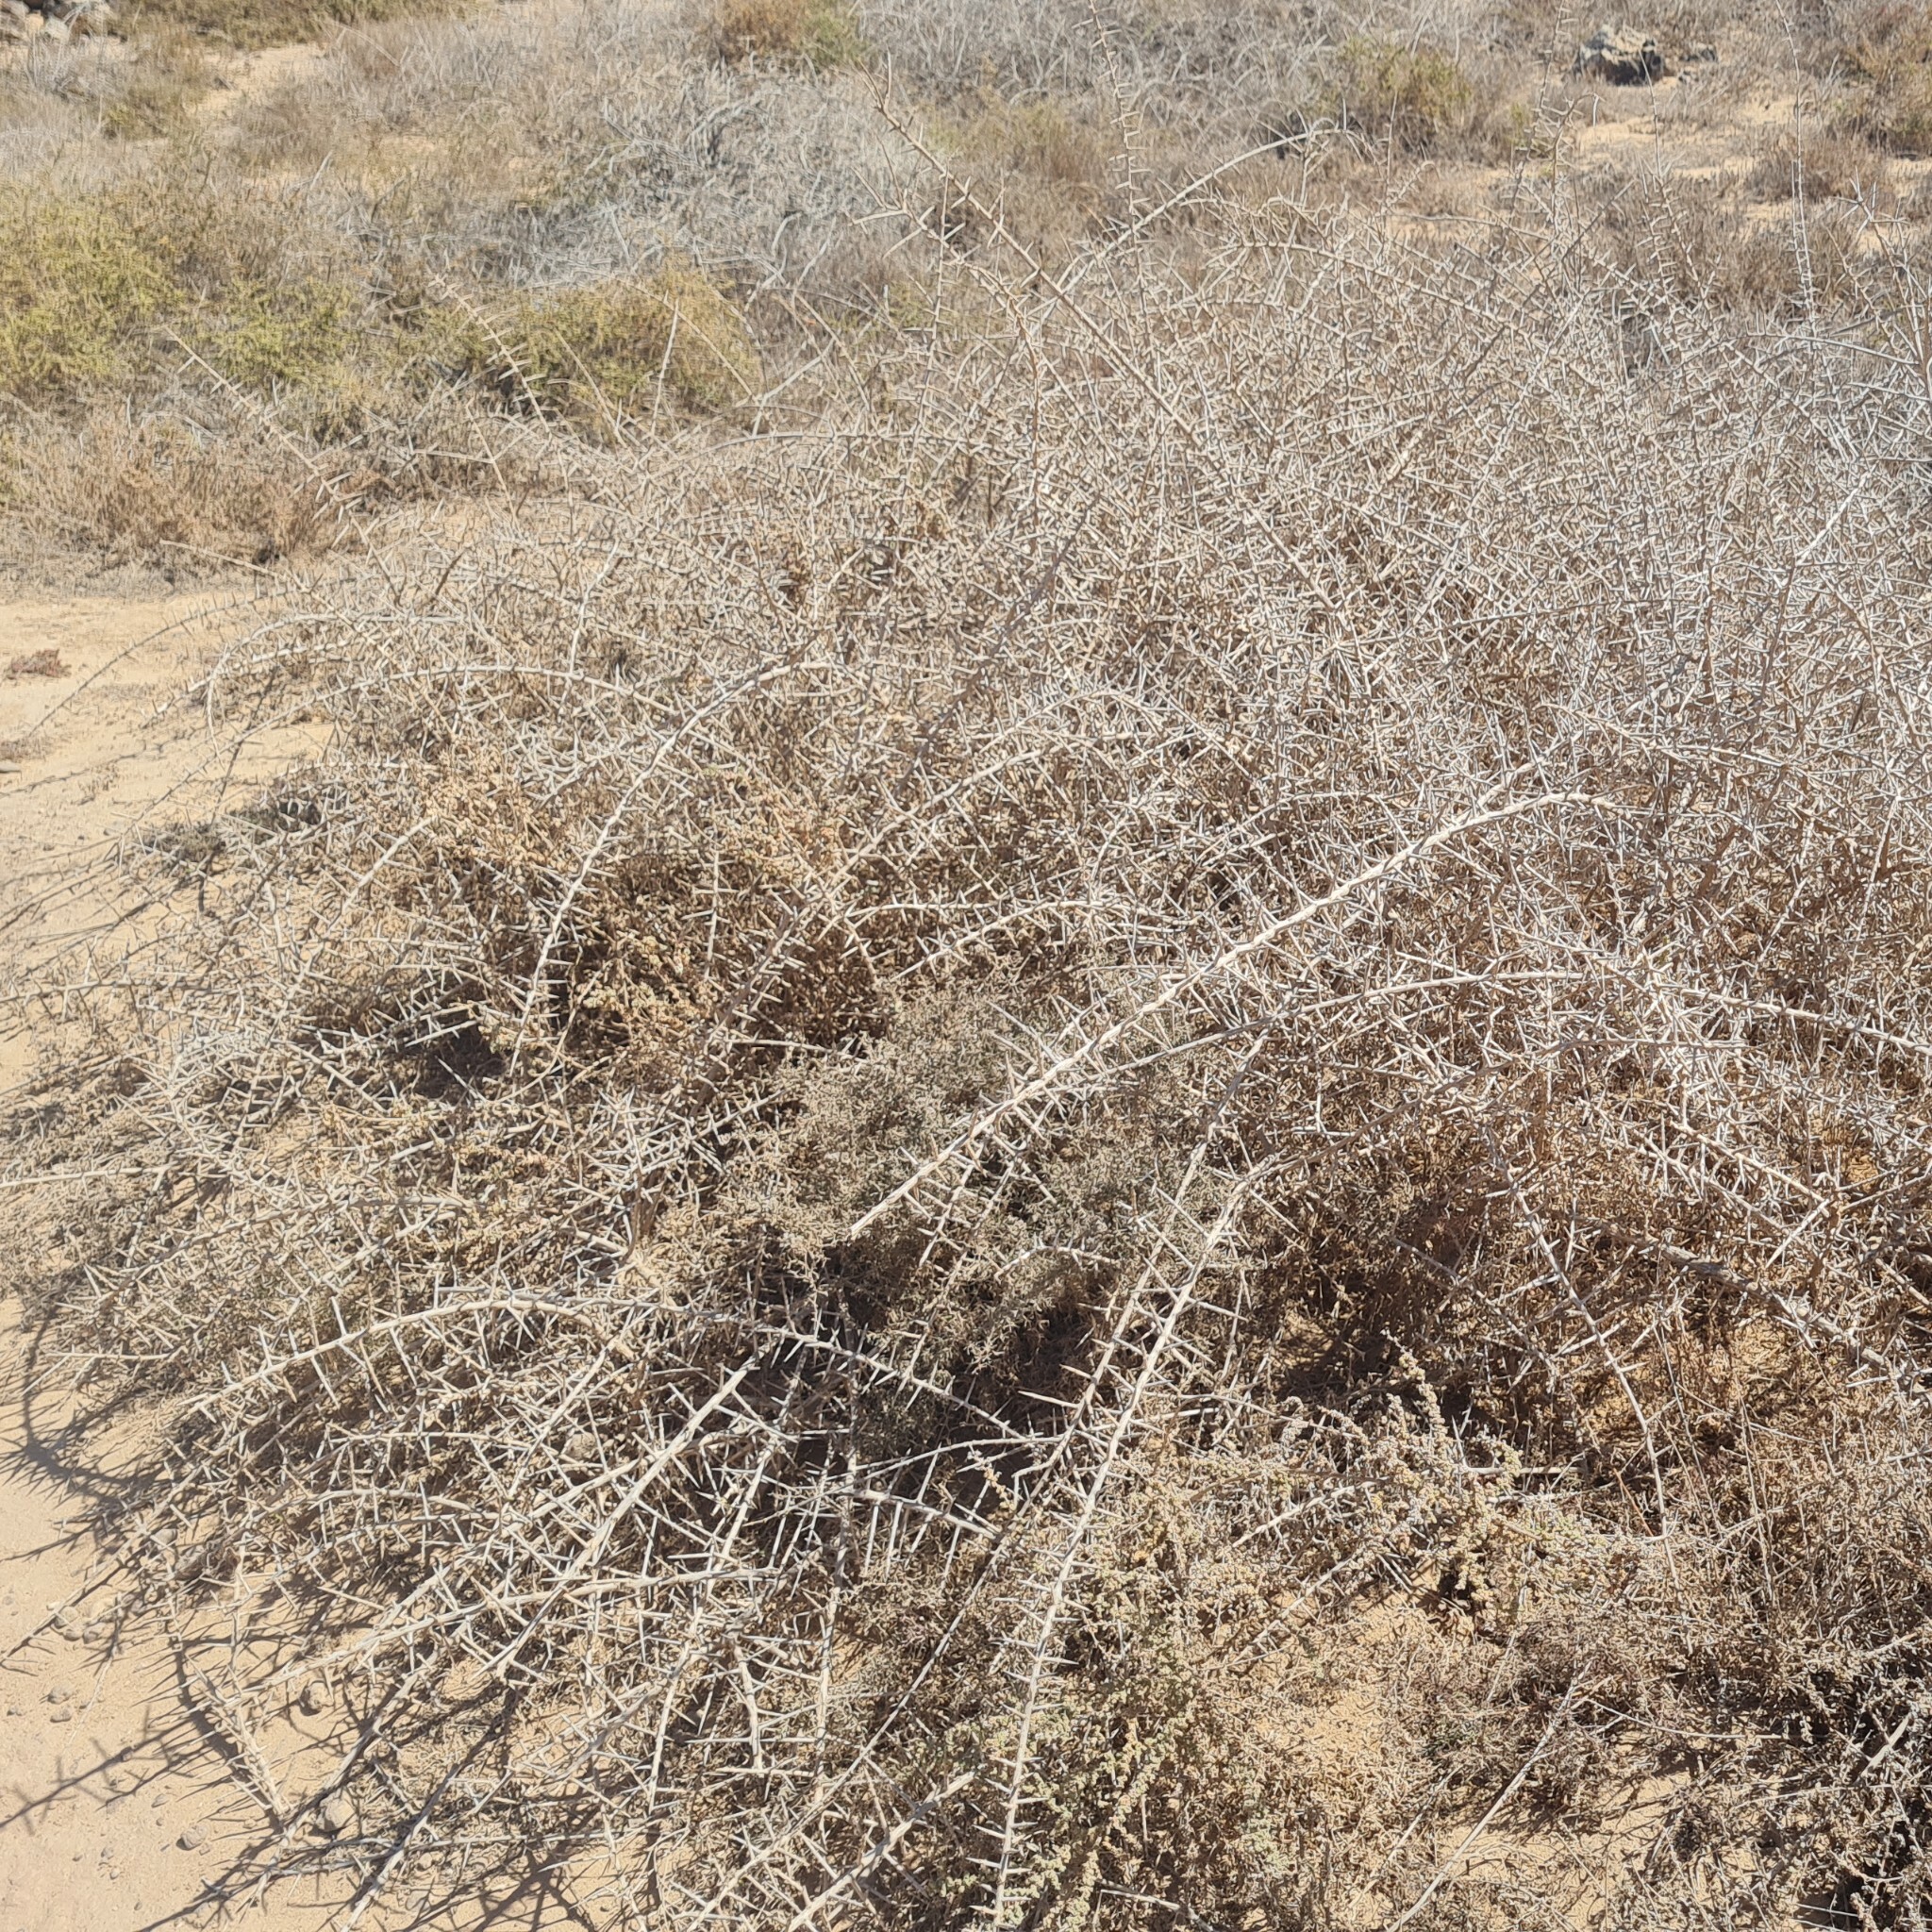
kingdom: Plantae
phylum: Tracheophyta
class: Magnoliopsida
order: Solanales
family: Solanaceae
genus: Lycium
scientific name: Lycium intricatum
